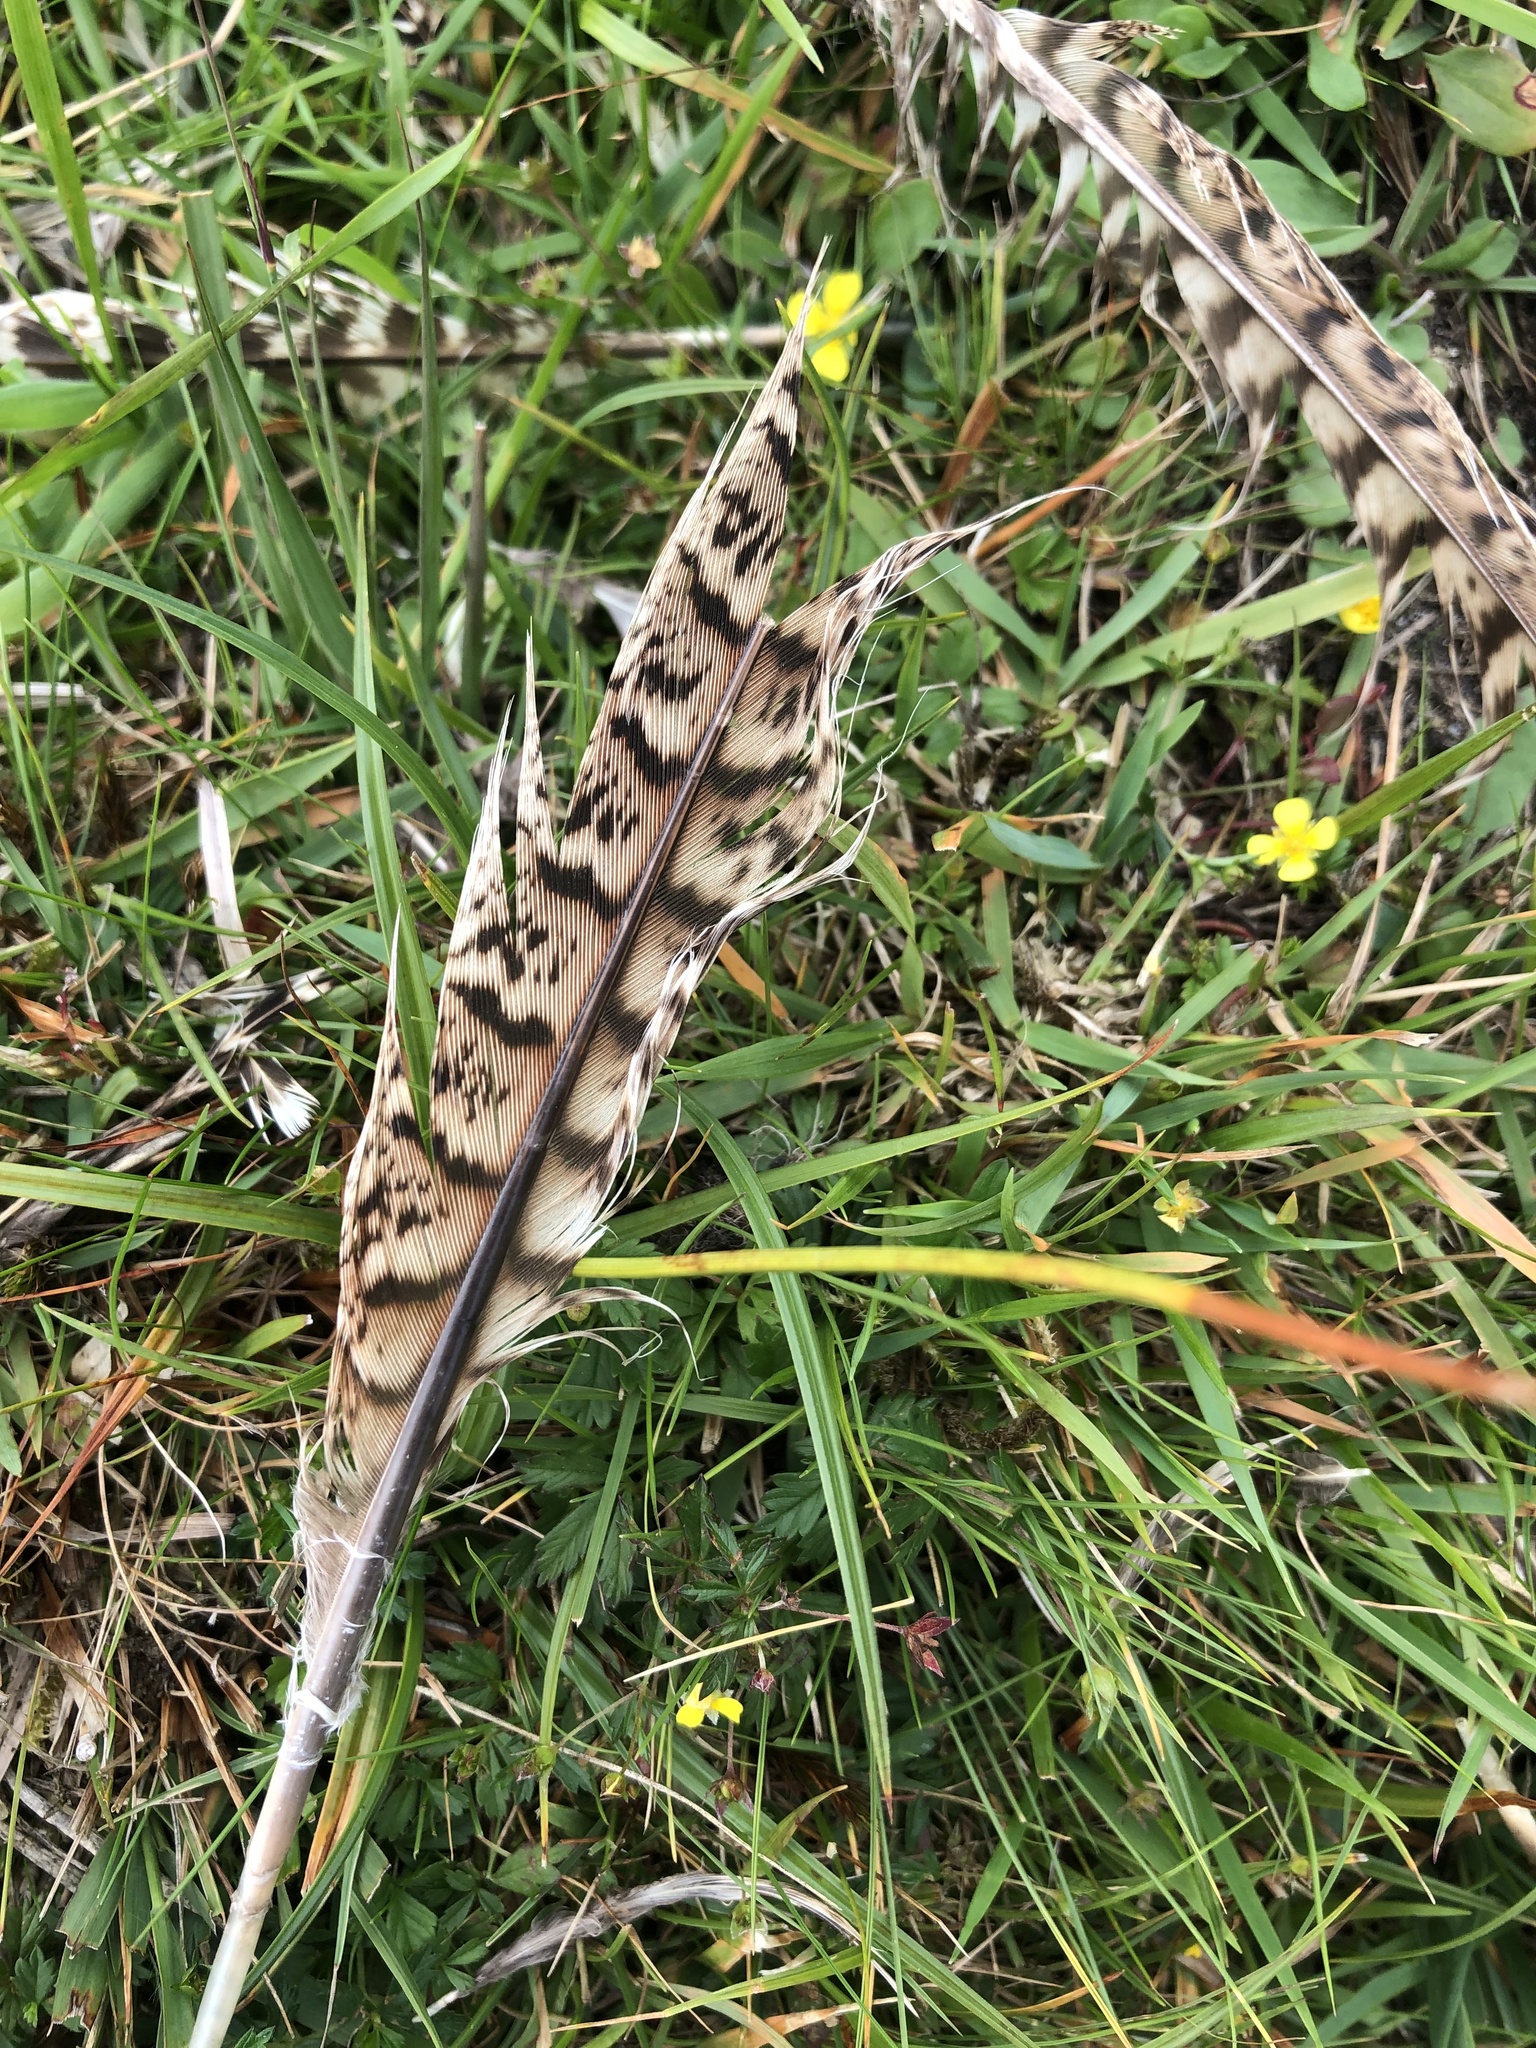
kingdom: Animalia
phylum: Chordata
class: Aves
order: Galliformes
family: Phasianidae
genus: Phasianus
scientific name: Phasianus colchicus
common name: Common pheasant
